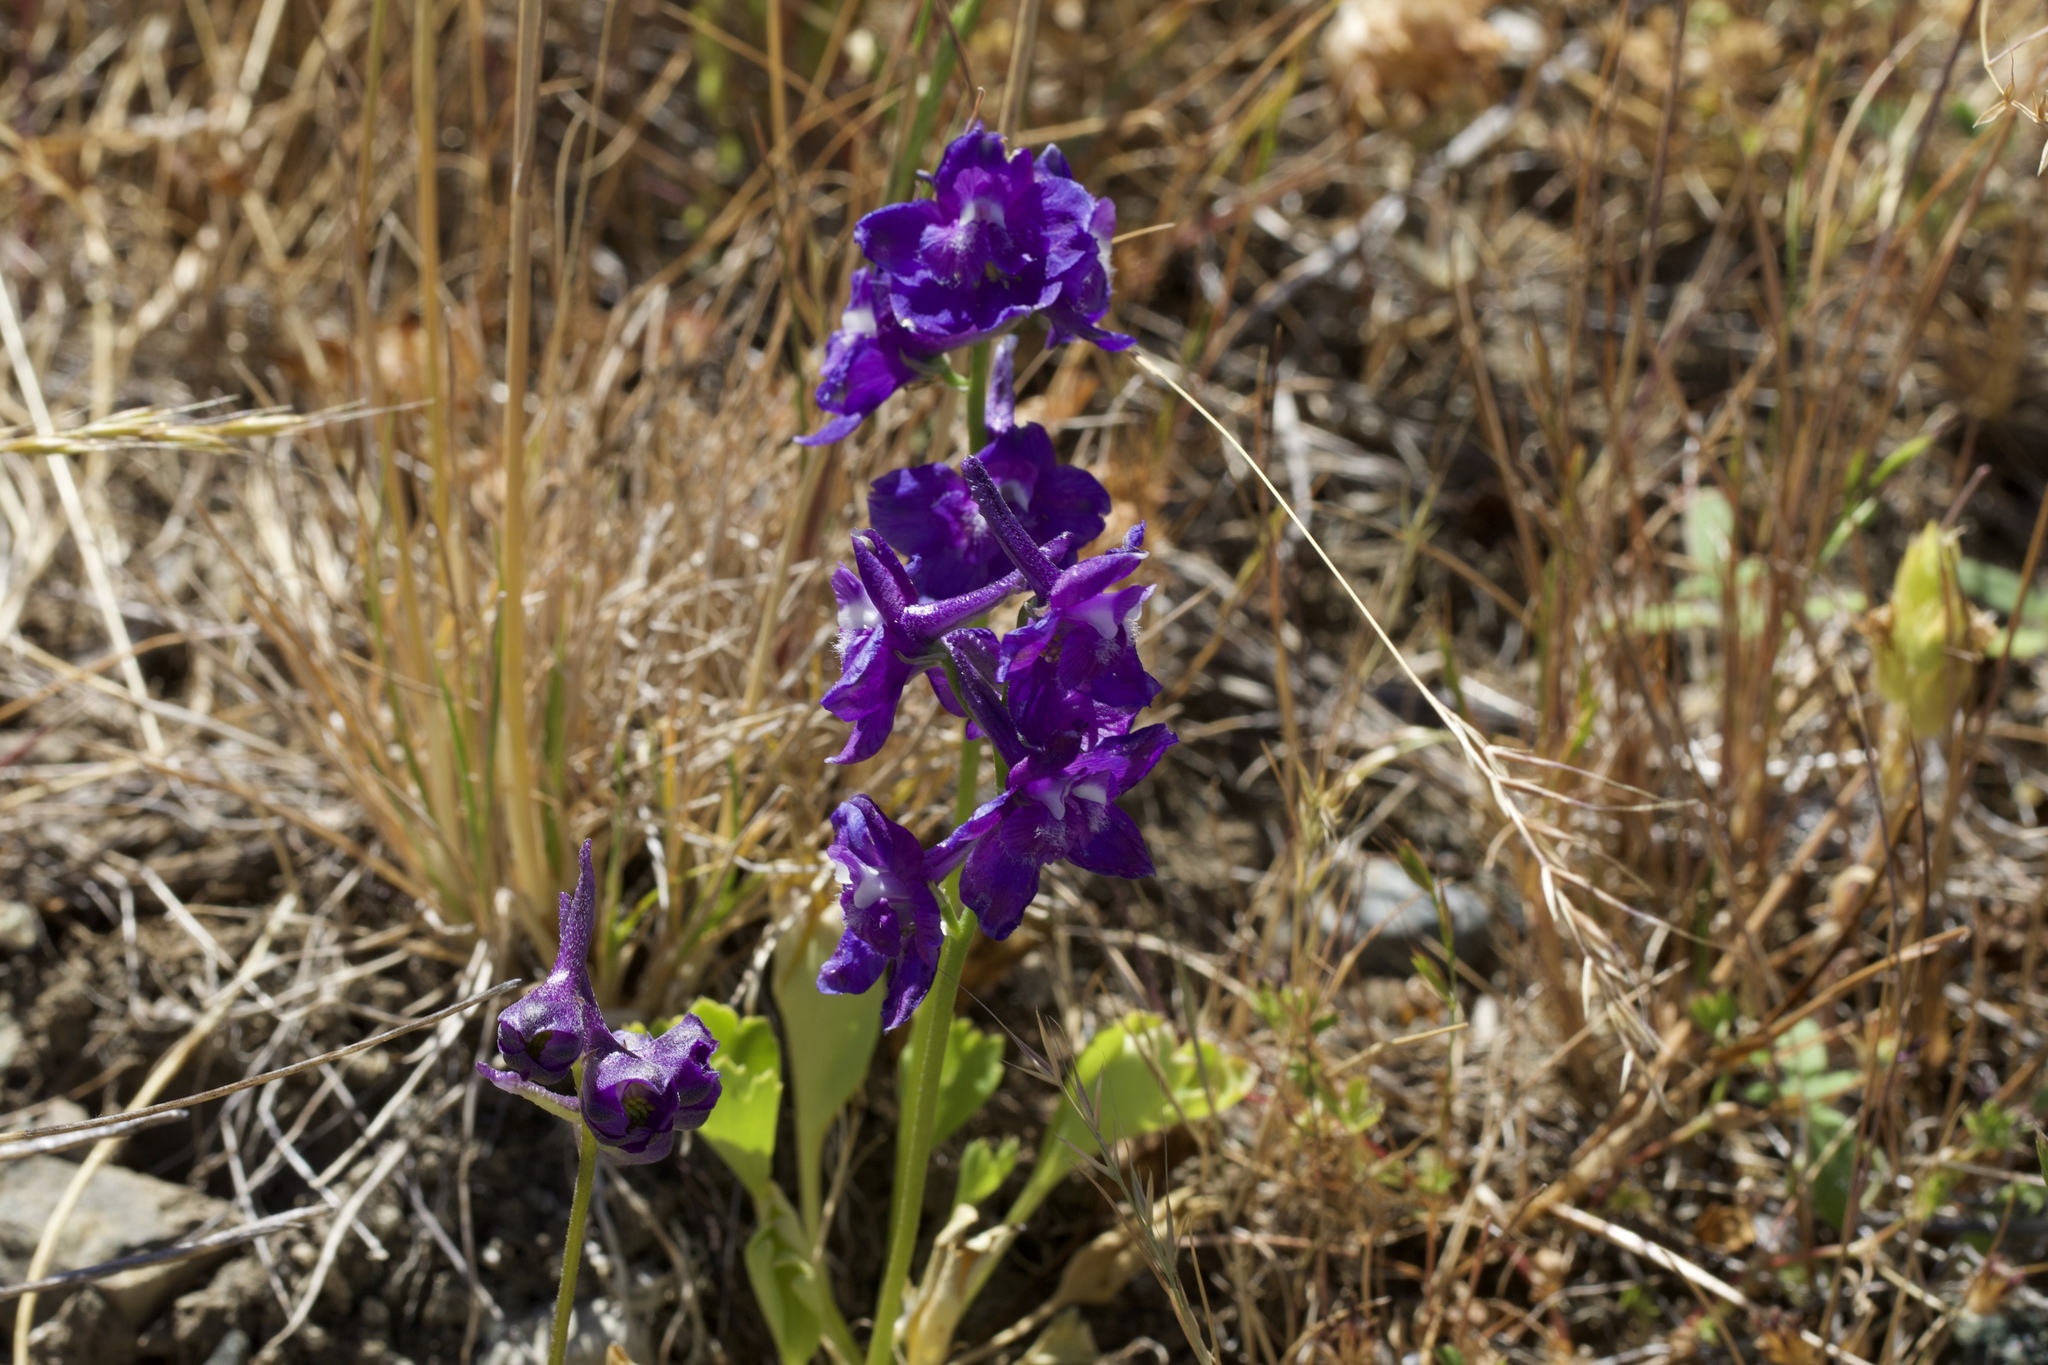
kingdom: Plantae
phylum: Tracheophyta
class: Magnoliopsida
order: Ranunculales
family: Ranunculaceae
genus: Delphinium
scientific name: Delphinium uliginosum
